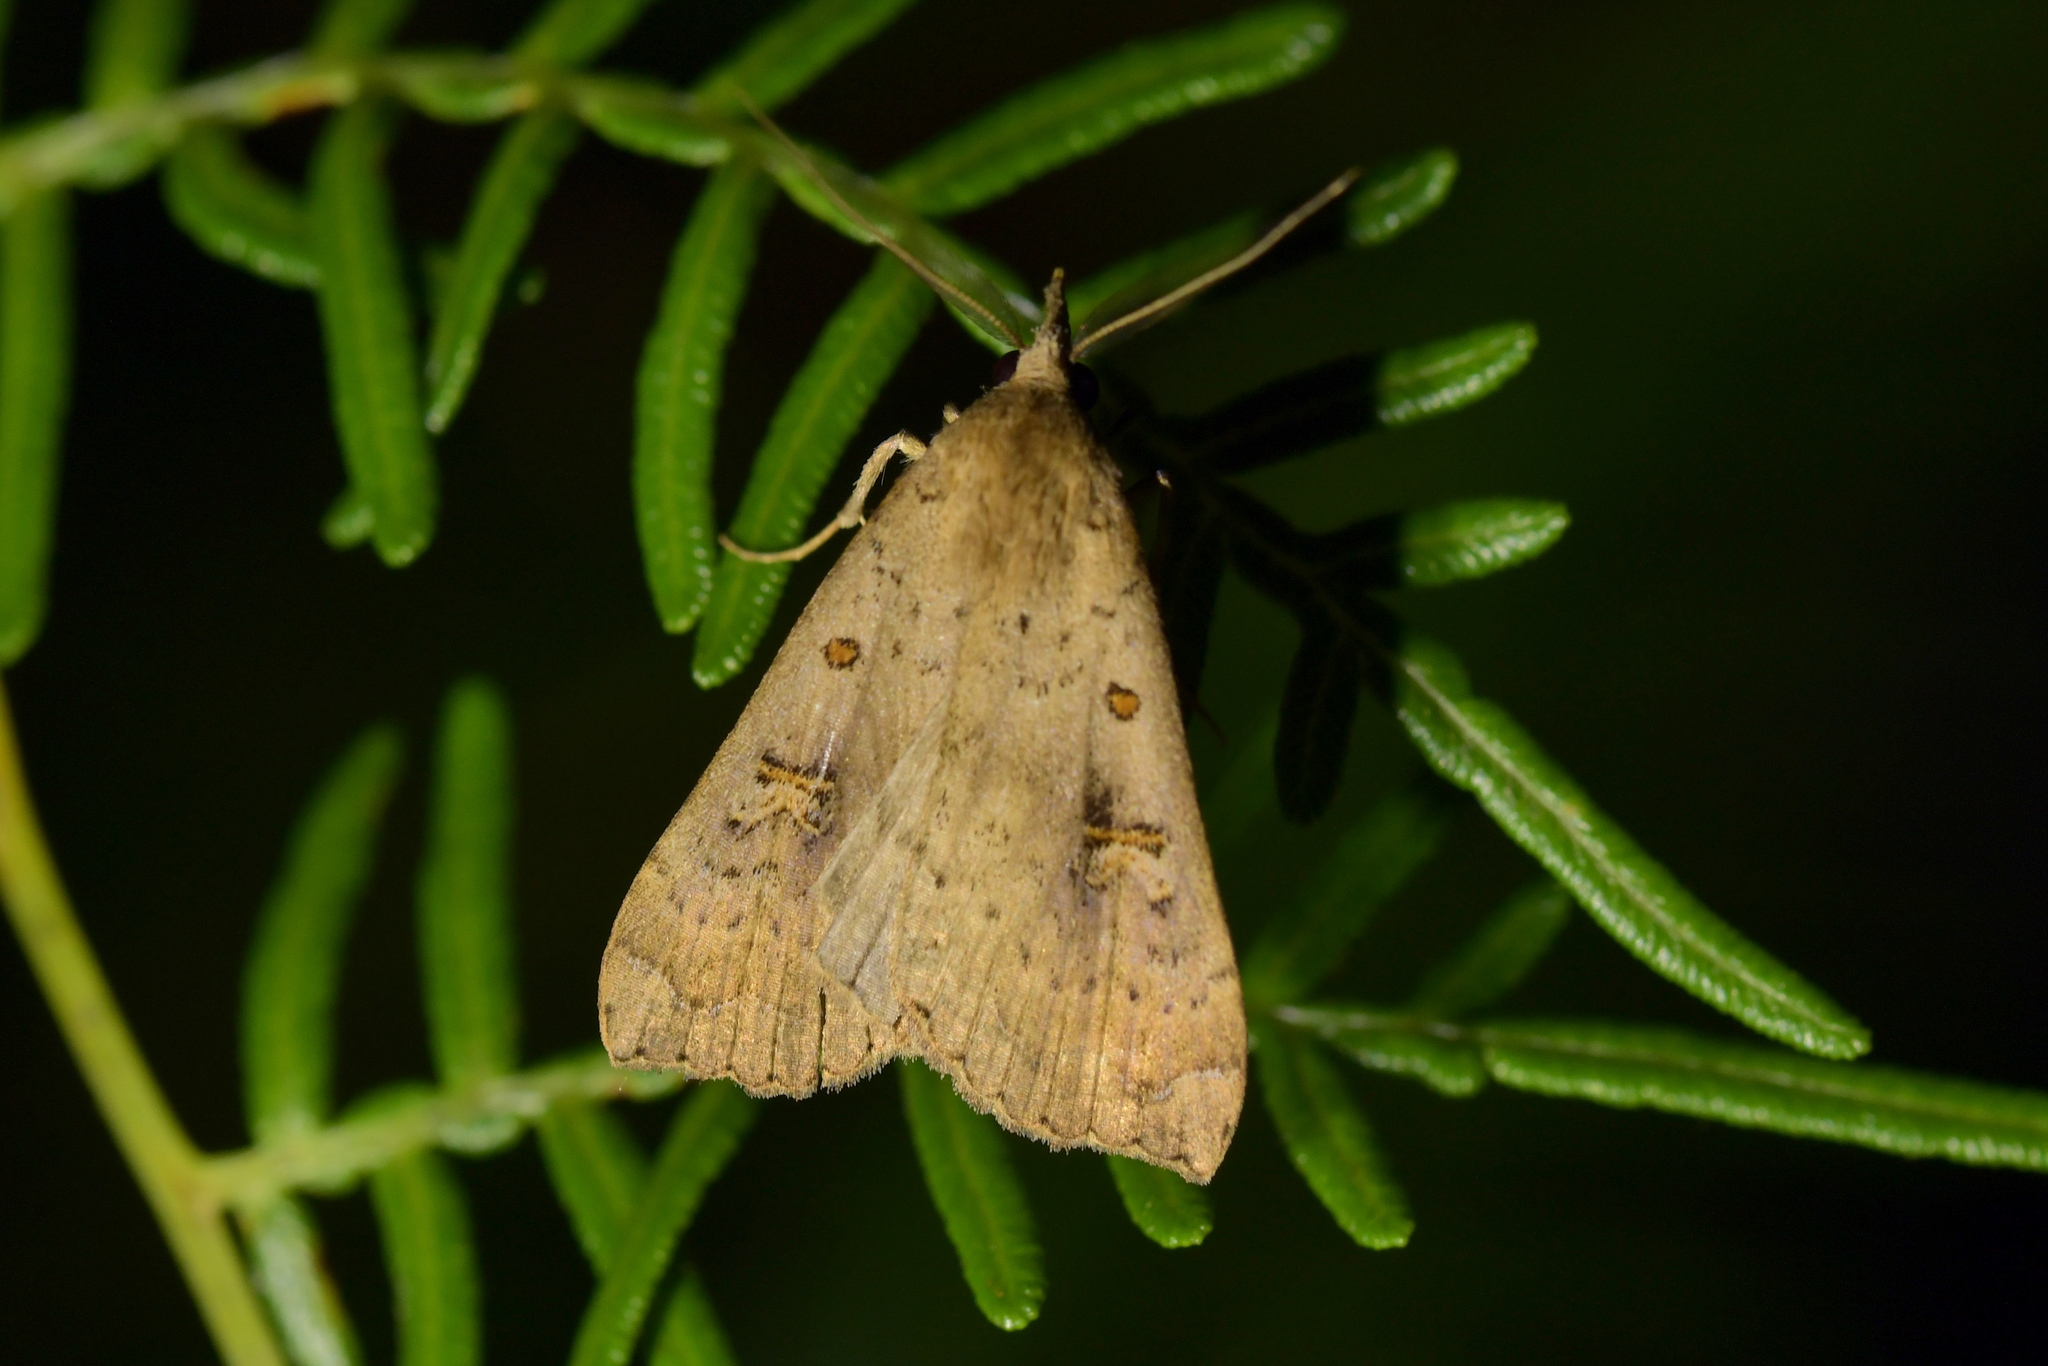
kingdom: Animalia
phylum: Arthropoda
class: Insecta
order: Lepidoptera
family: Erebidae
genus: Rhapsa
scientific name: Rhapsa scotosialis
